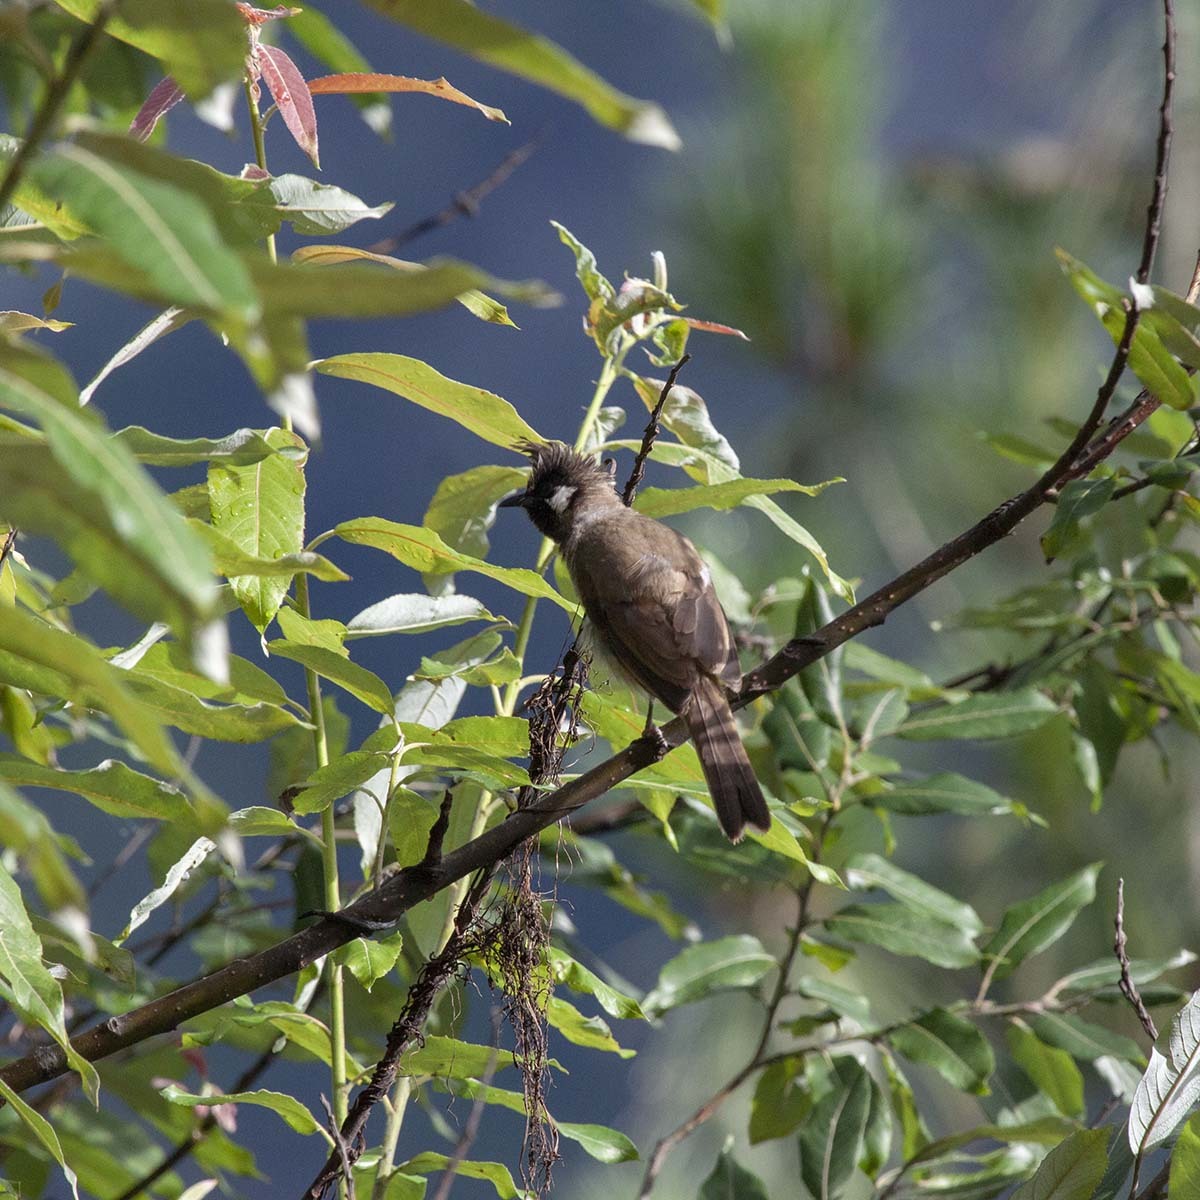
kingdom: Animalia
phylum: Chordata
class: Aves
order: Passeriformes
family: Pycnonotidae
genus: Pycnonotus
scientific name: Pycnonotus leucogenys
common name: Himalayan bulbul
